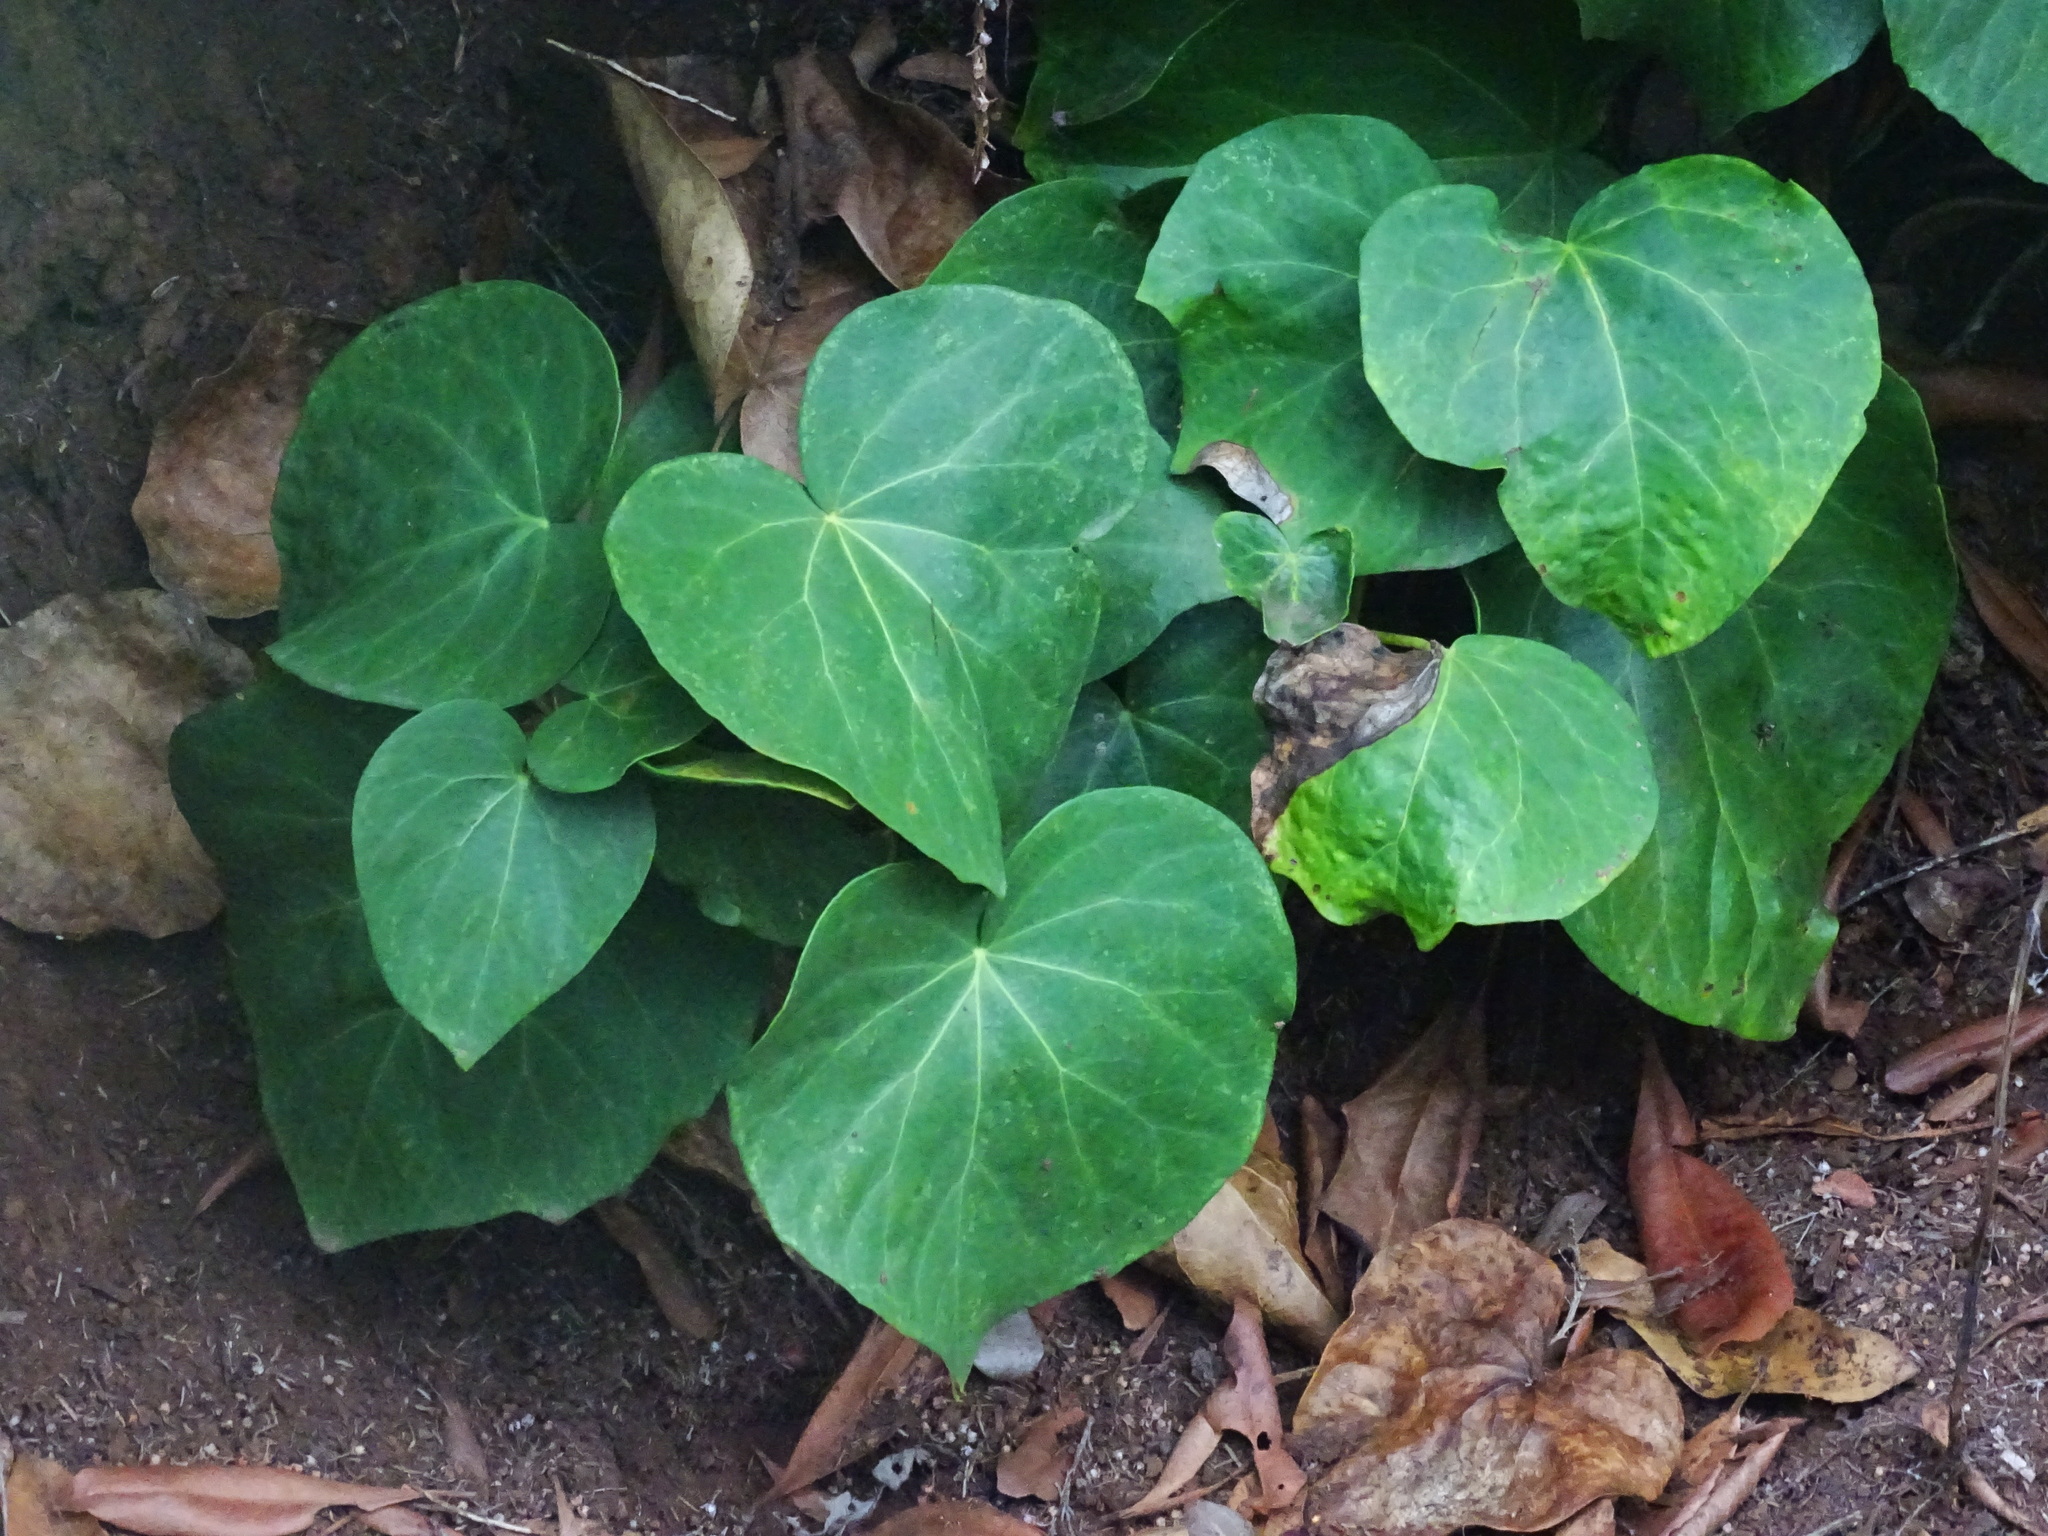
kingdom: Plantae
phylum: Tracheophyta
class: Magnoliopsida
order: Apiales
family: Araliaceae
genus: Hedera
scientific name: Hedera canariensis
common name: Madeira ivy
